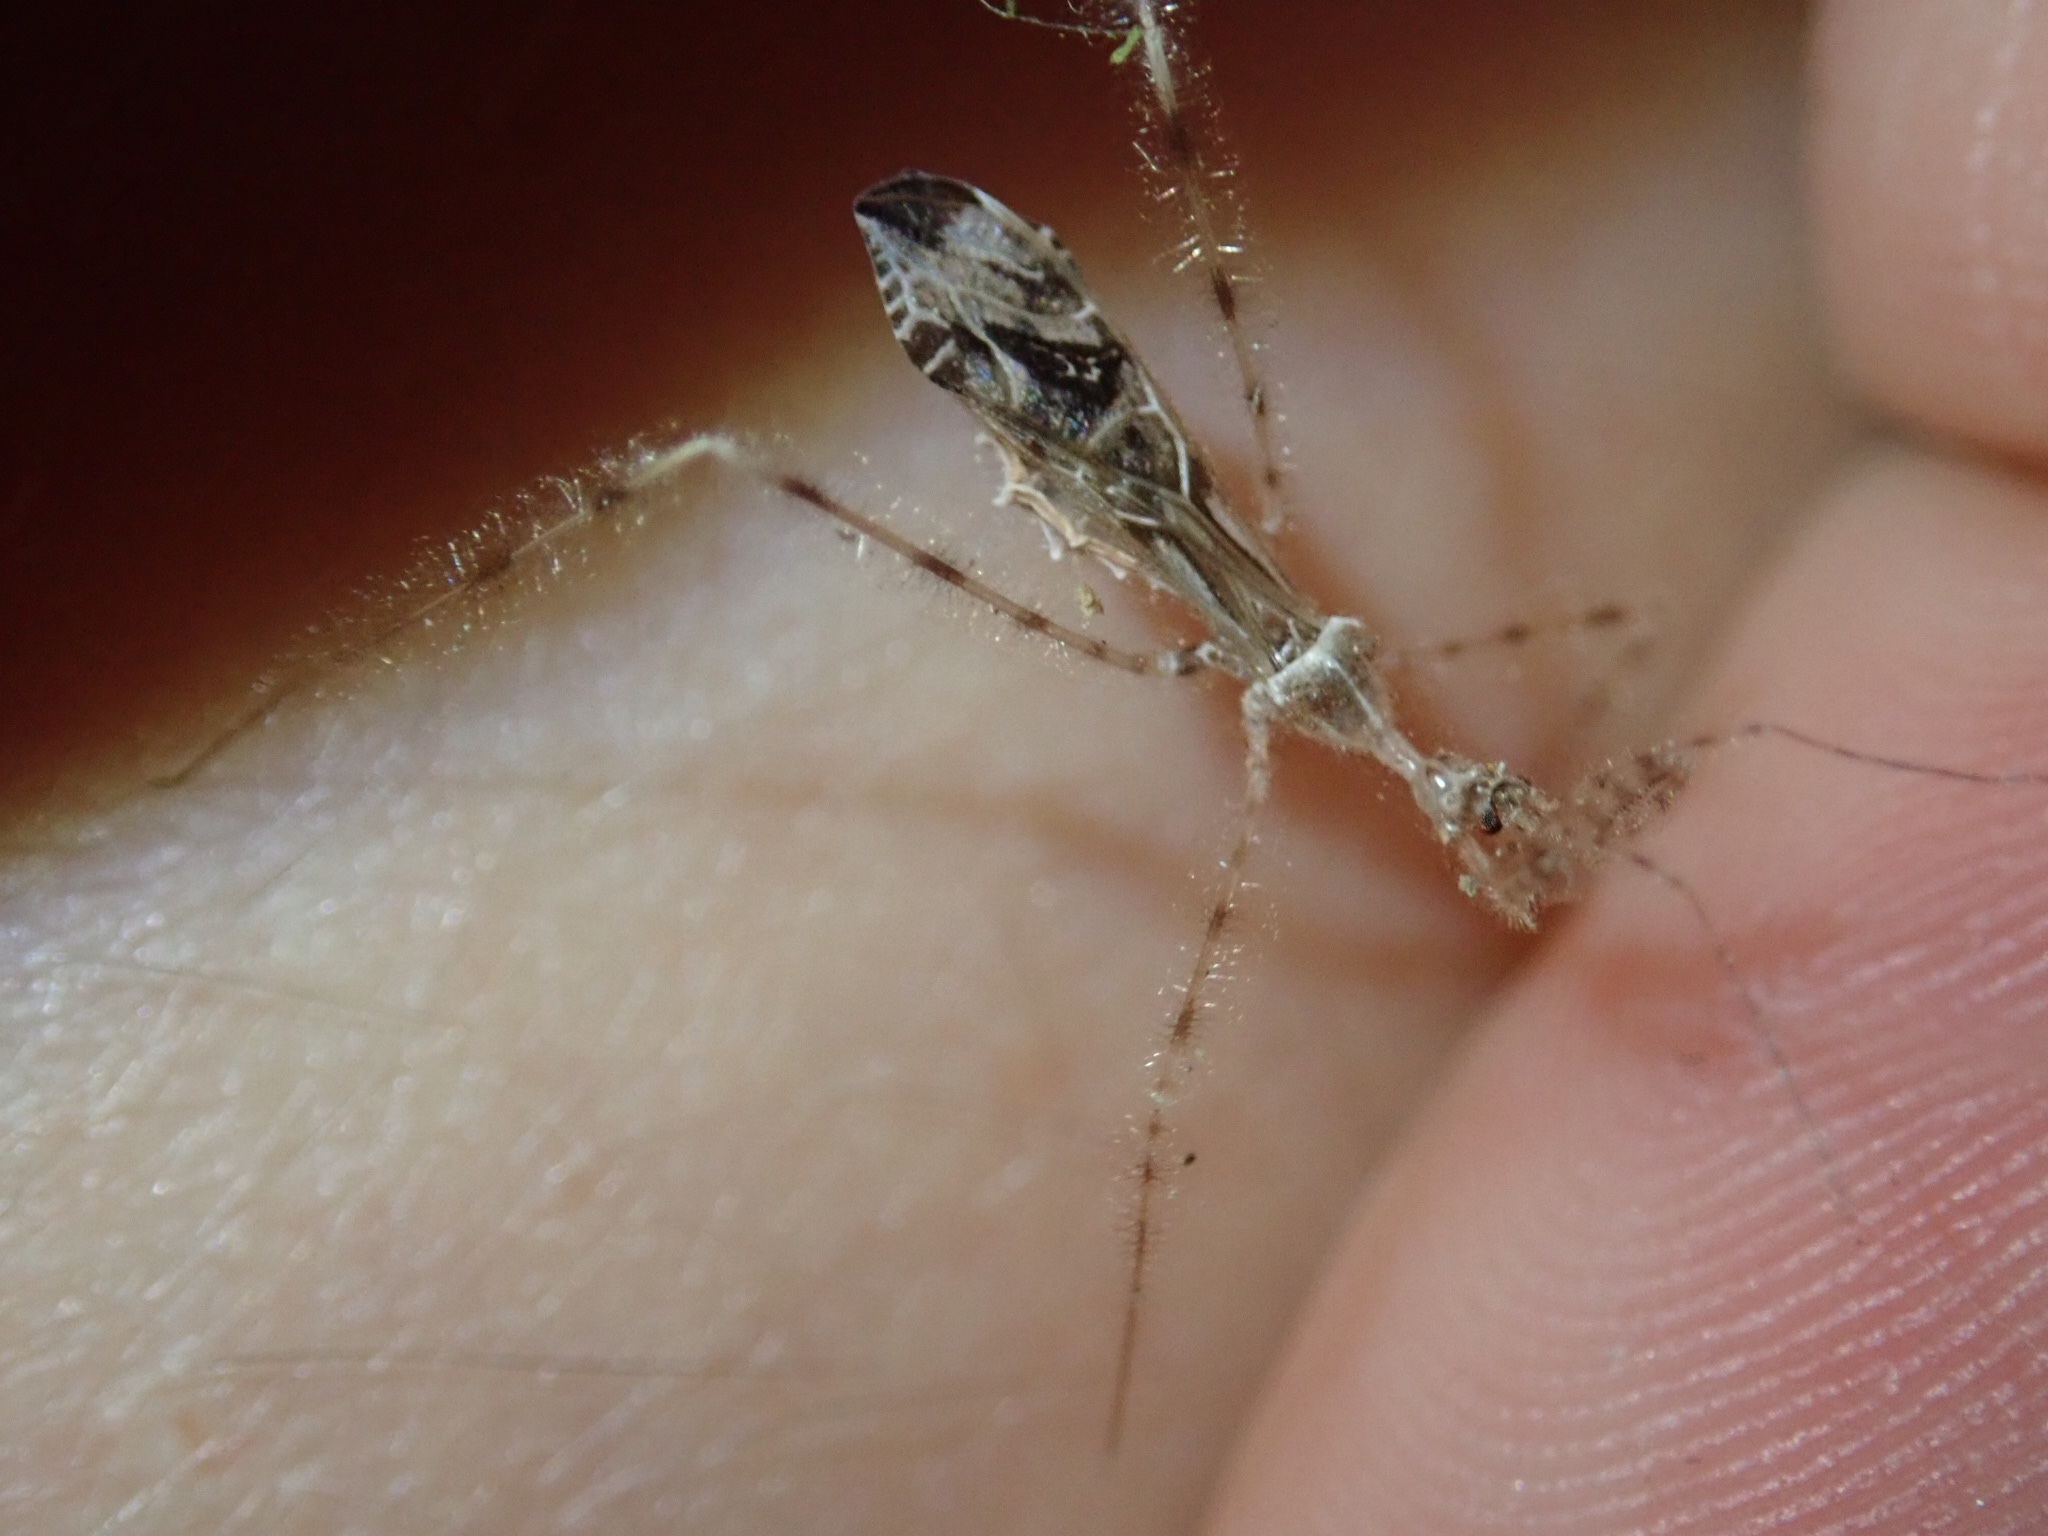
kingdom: Animalia
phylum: Arthropoda
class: Insecta
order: Hemiptera
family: Reduviidae
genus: Stenolemus
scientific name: Stenolemus fraterculus
